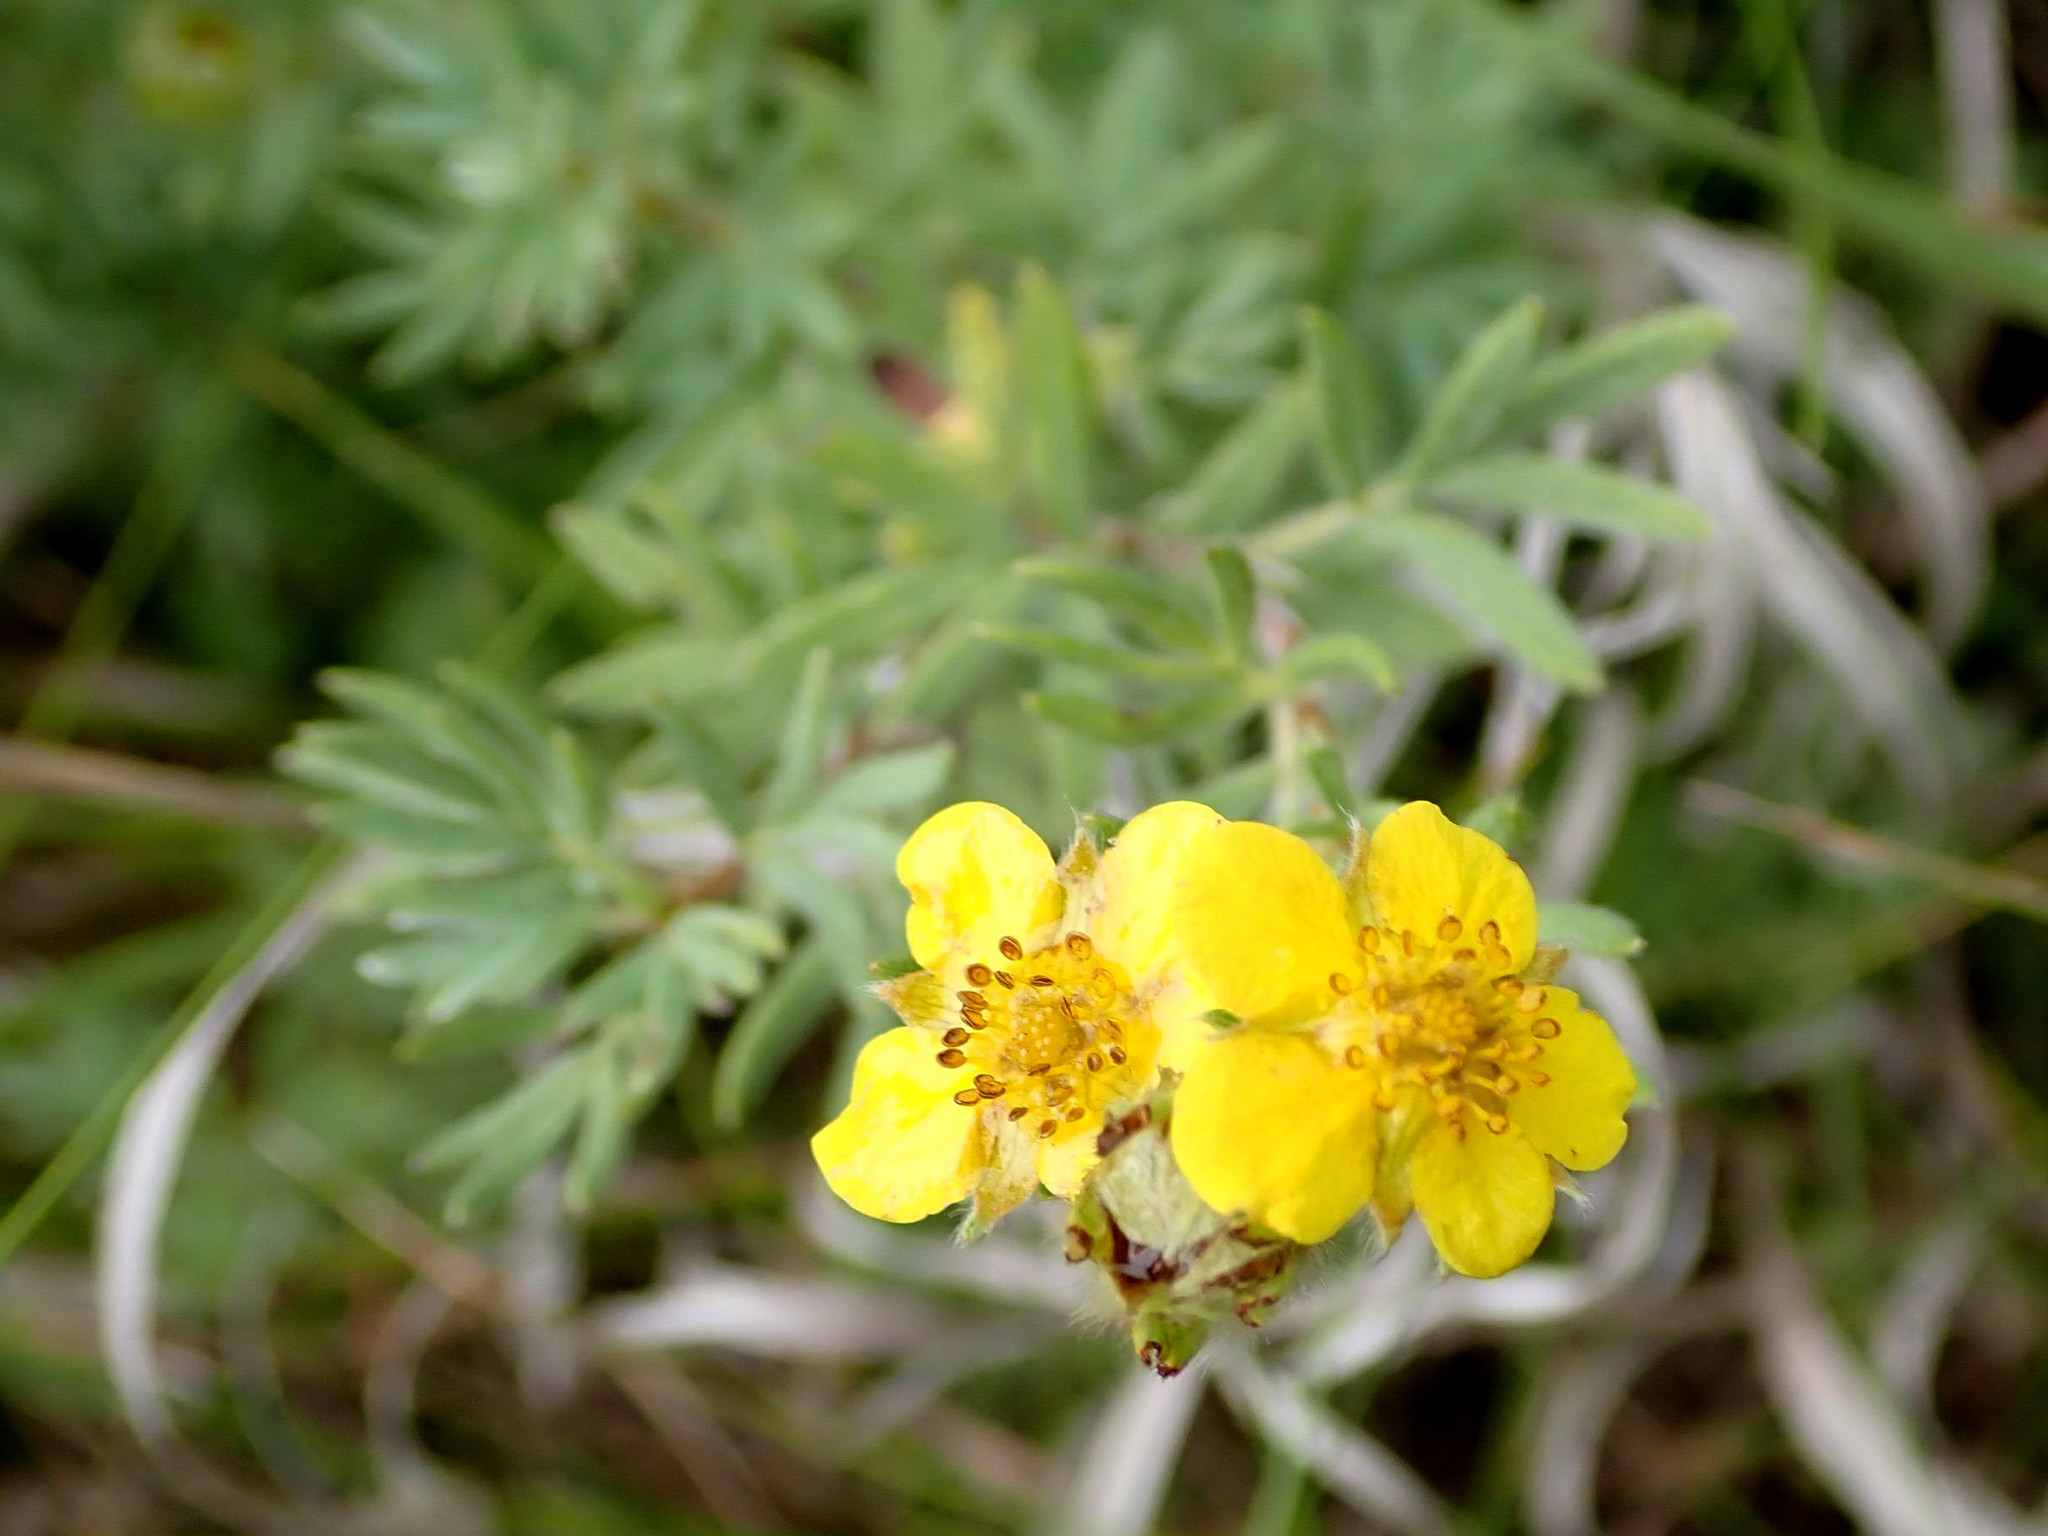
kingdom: Plantae
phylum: Tracheophyta
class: Magnoliopsida
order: Rosales
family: Rosaceae
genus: Dasiphora
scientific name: Dasiphora fruticosa
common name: Shrubby cinquefoil
